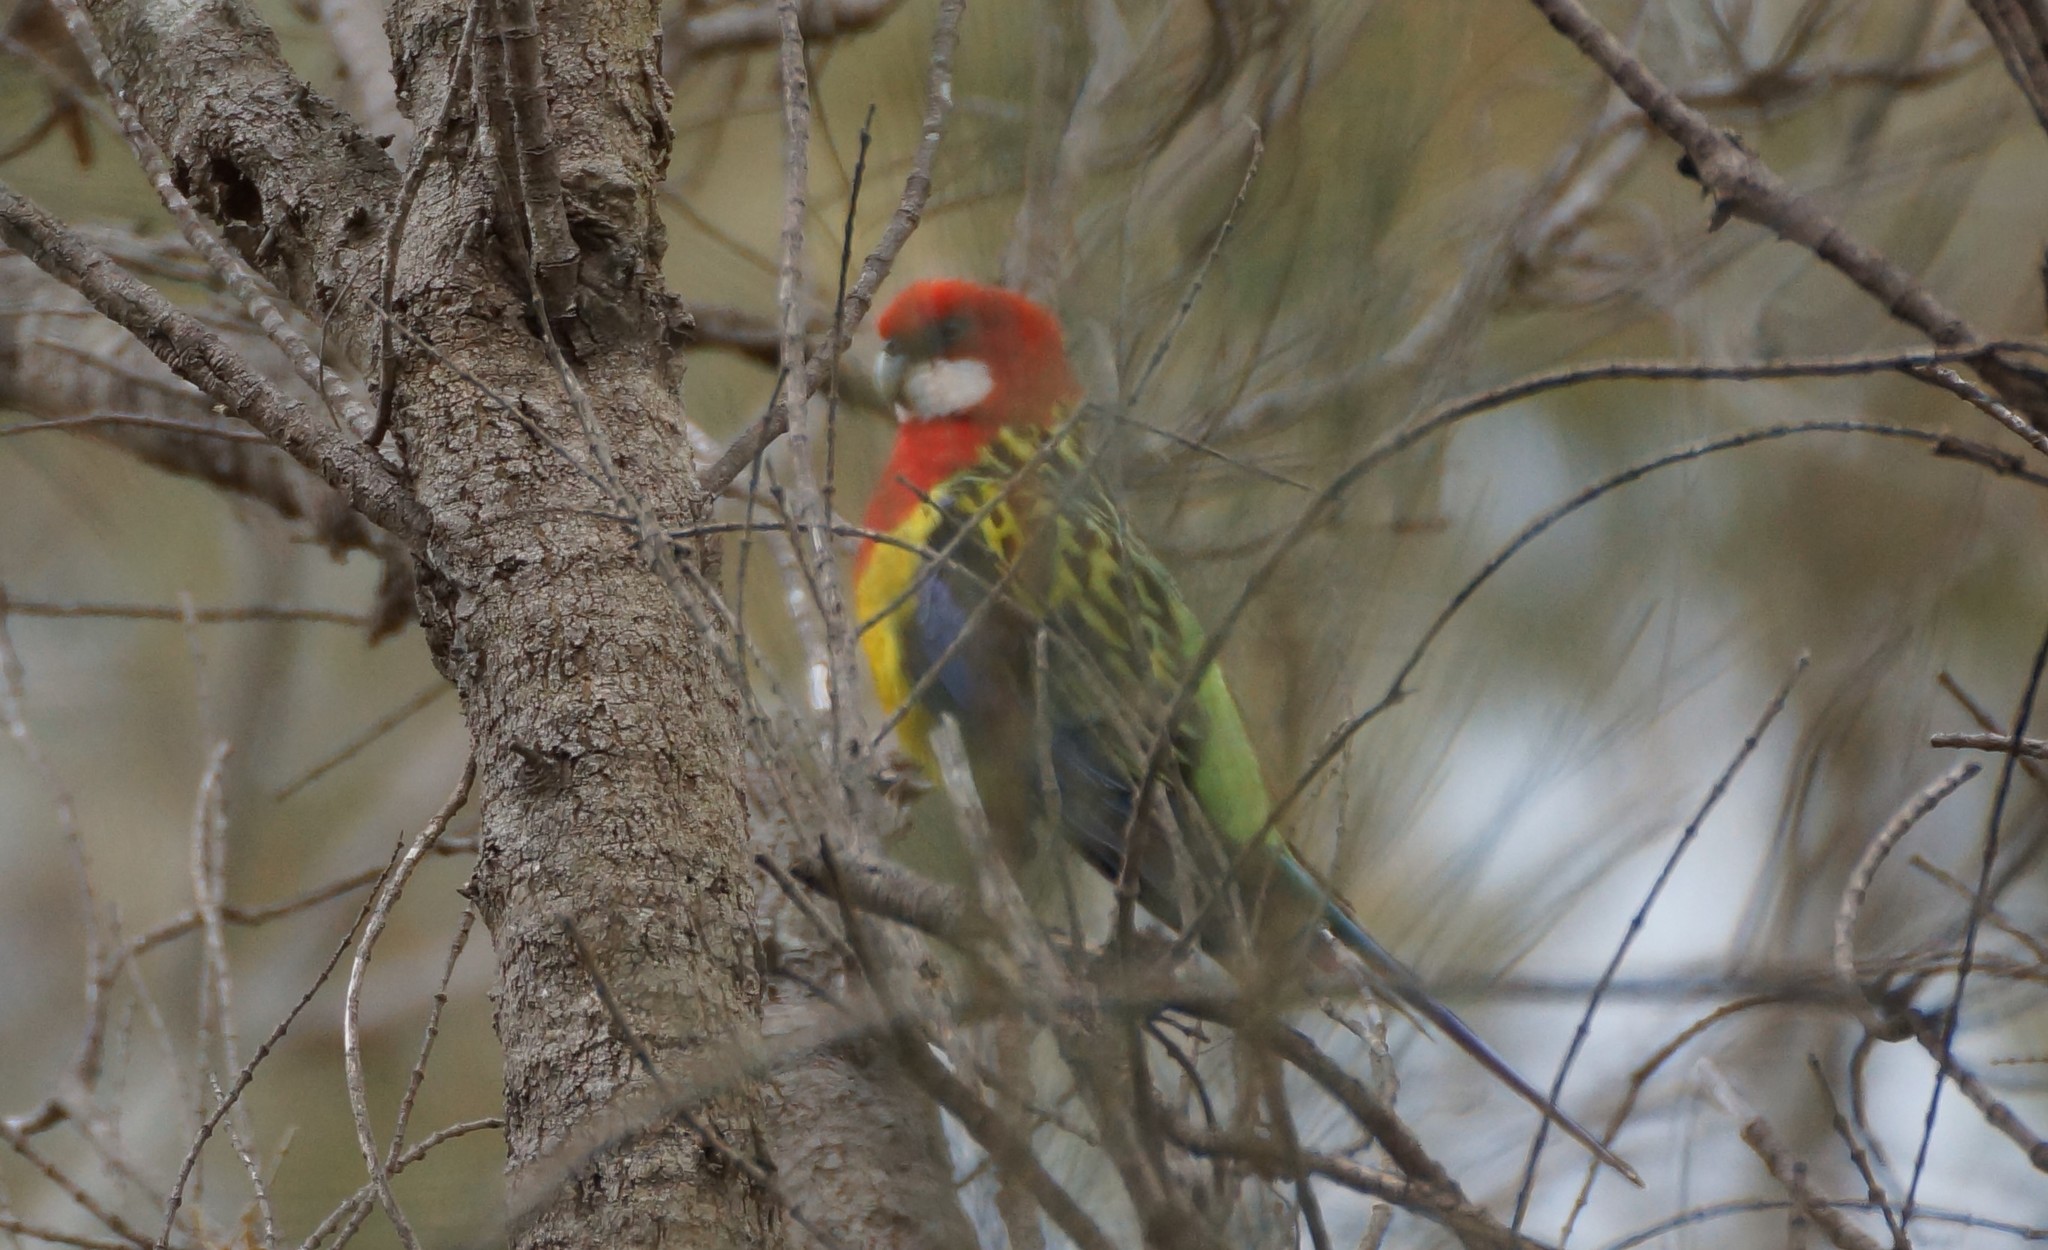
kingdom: Animalia
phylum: Chordata
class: Aves
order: Psittaciformes
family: Psittacidae
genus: Platycercus
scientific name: Platycercus eximius
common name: Eastern rosella
